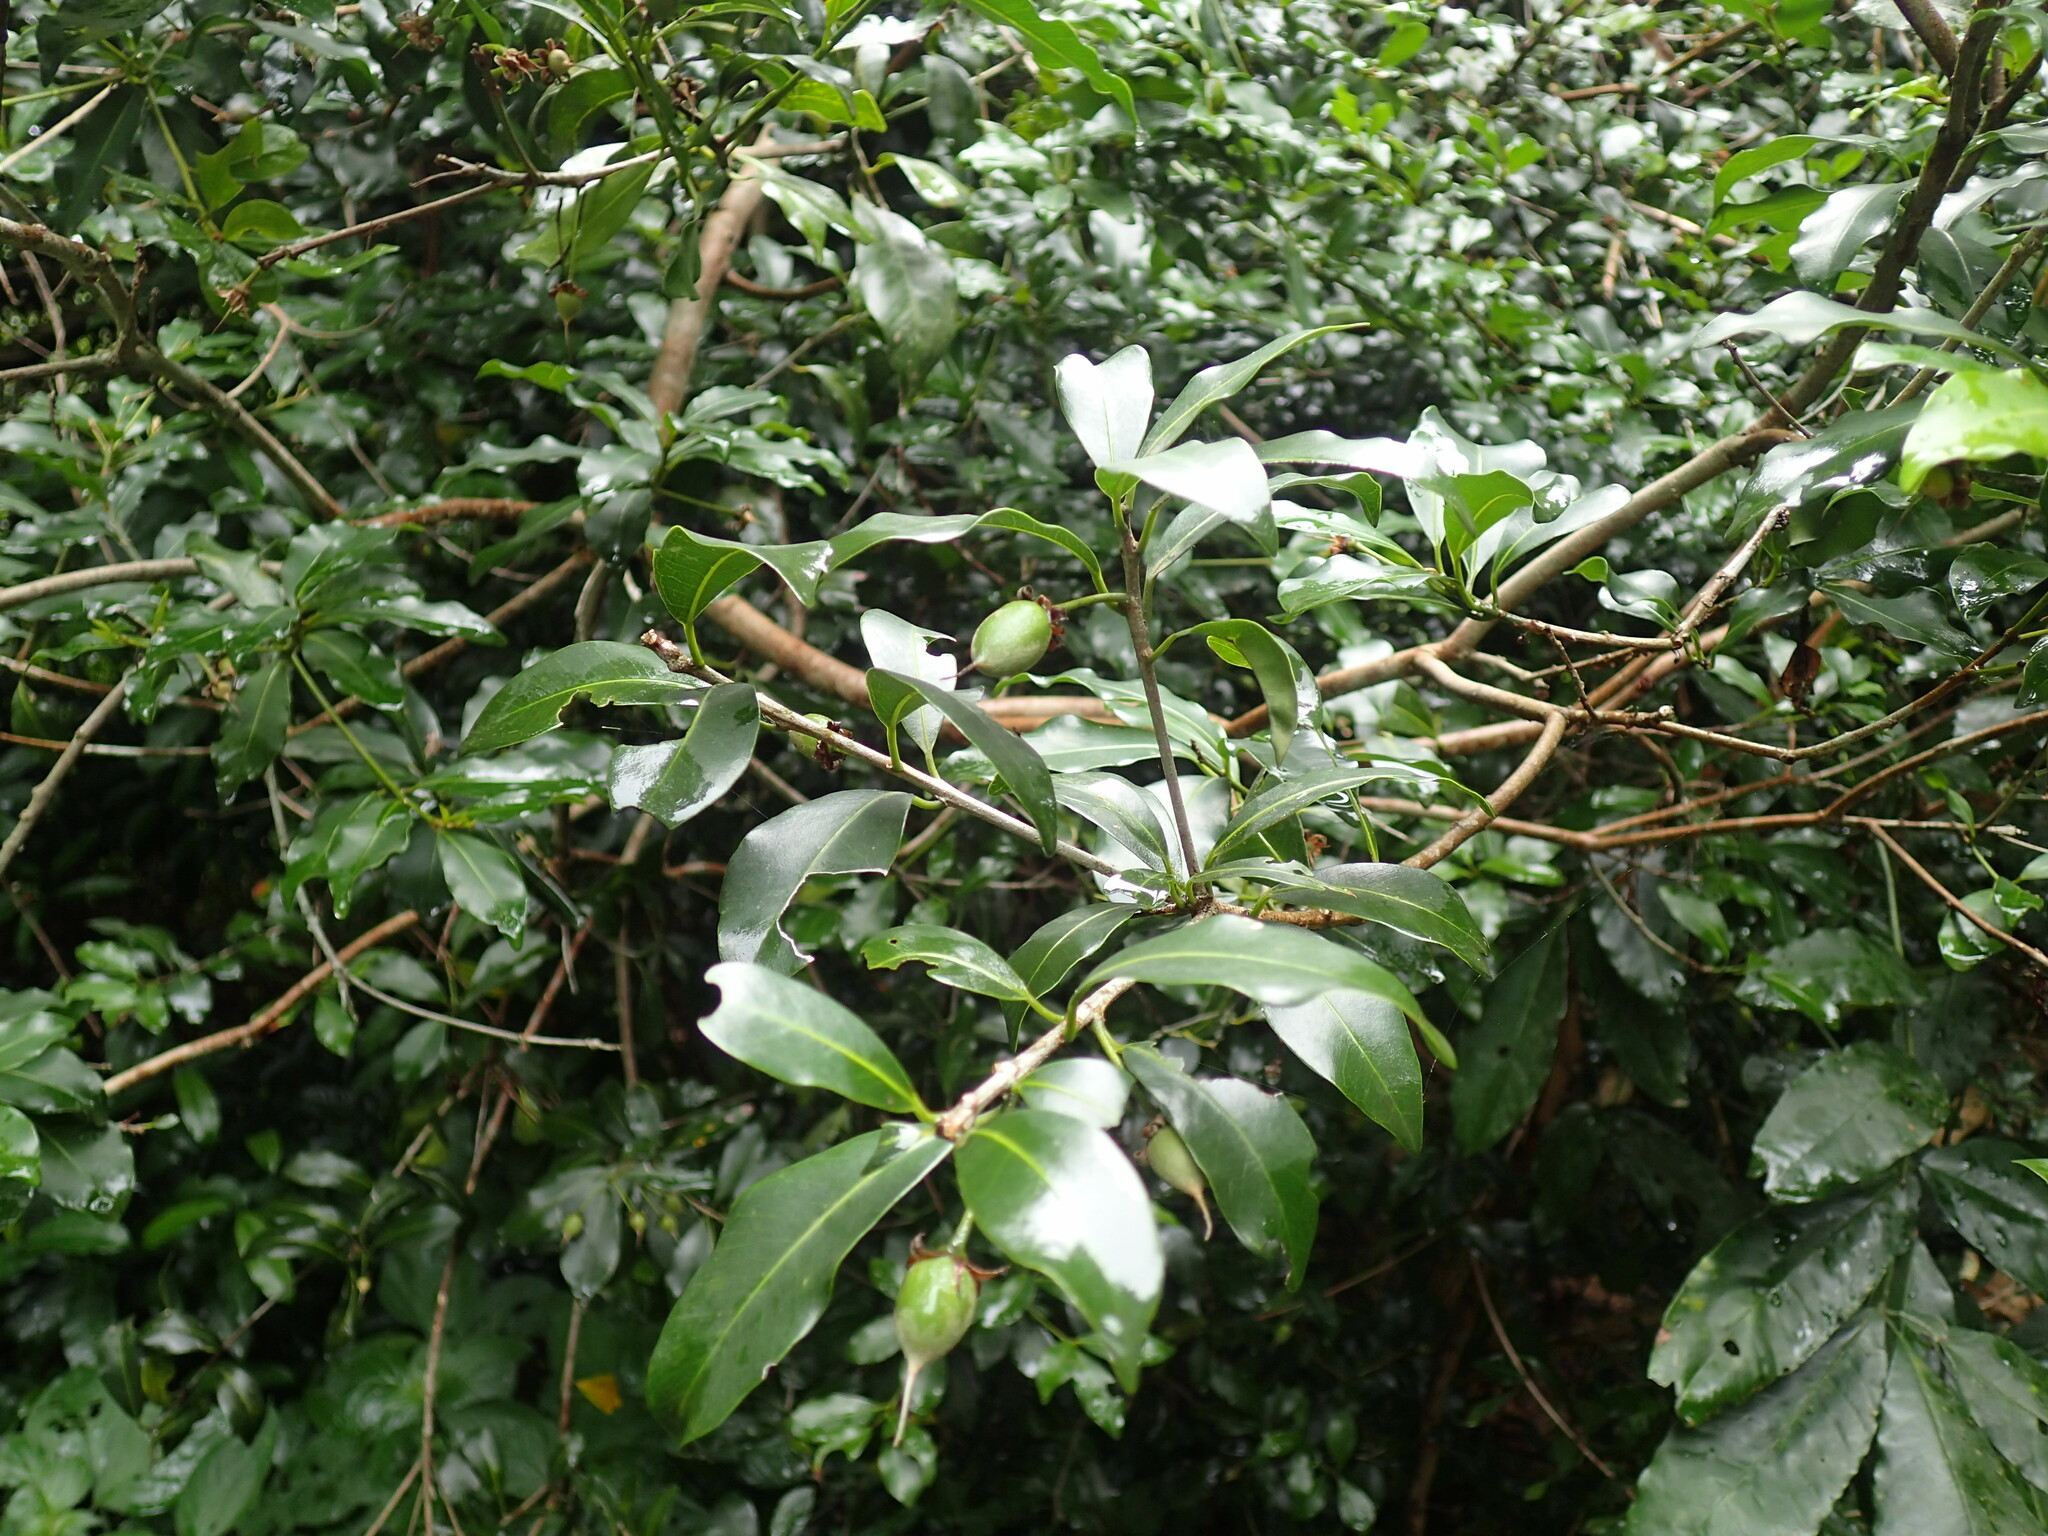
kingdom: Plantae
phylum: Tracheophyta
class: Magnoliopsida
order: Ericales
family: Sapotaceae
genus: Mimusops
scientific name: Mimusops obovata
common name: Red milkwood
